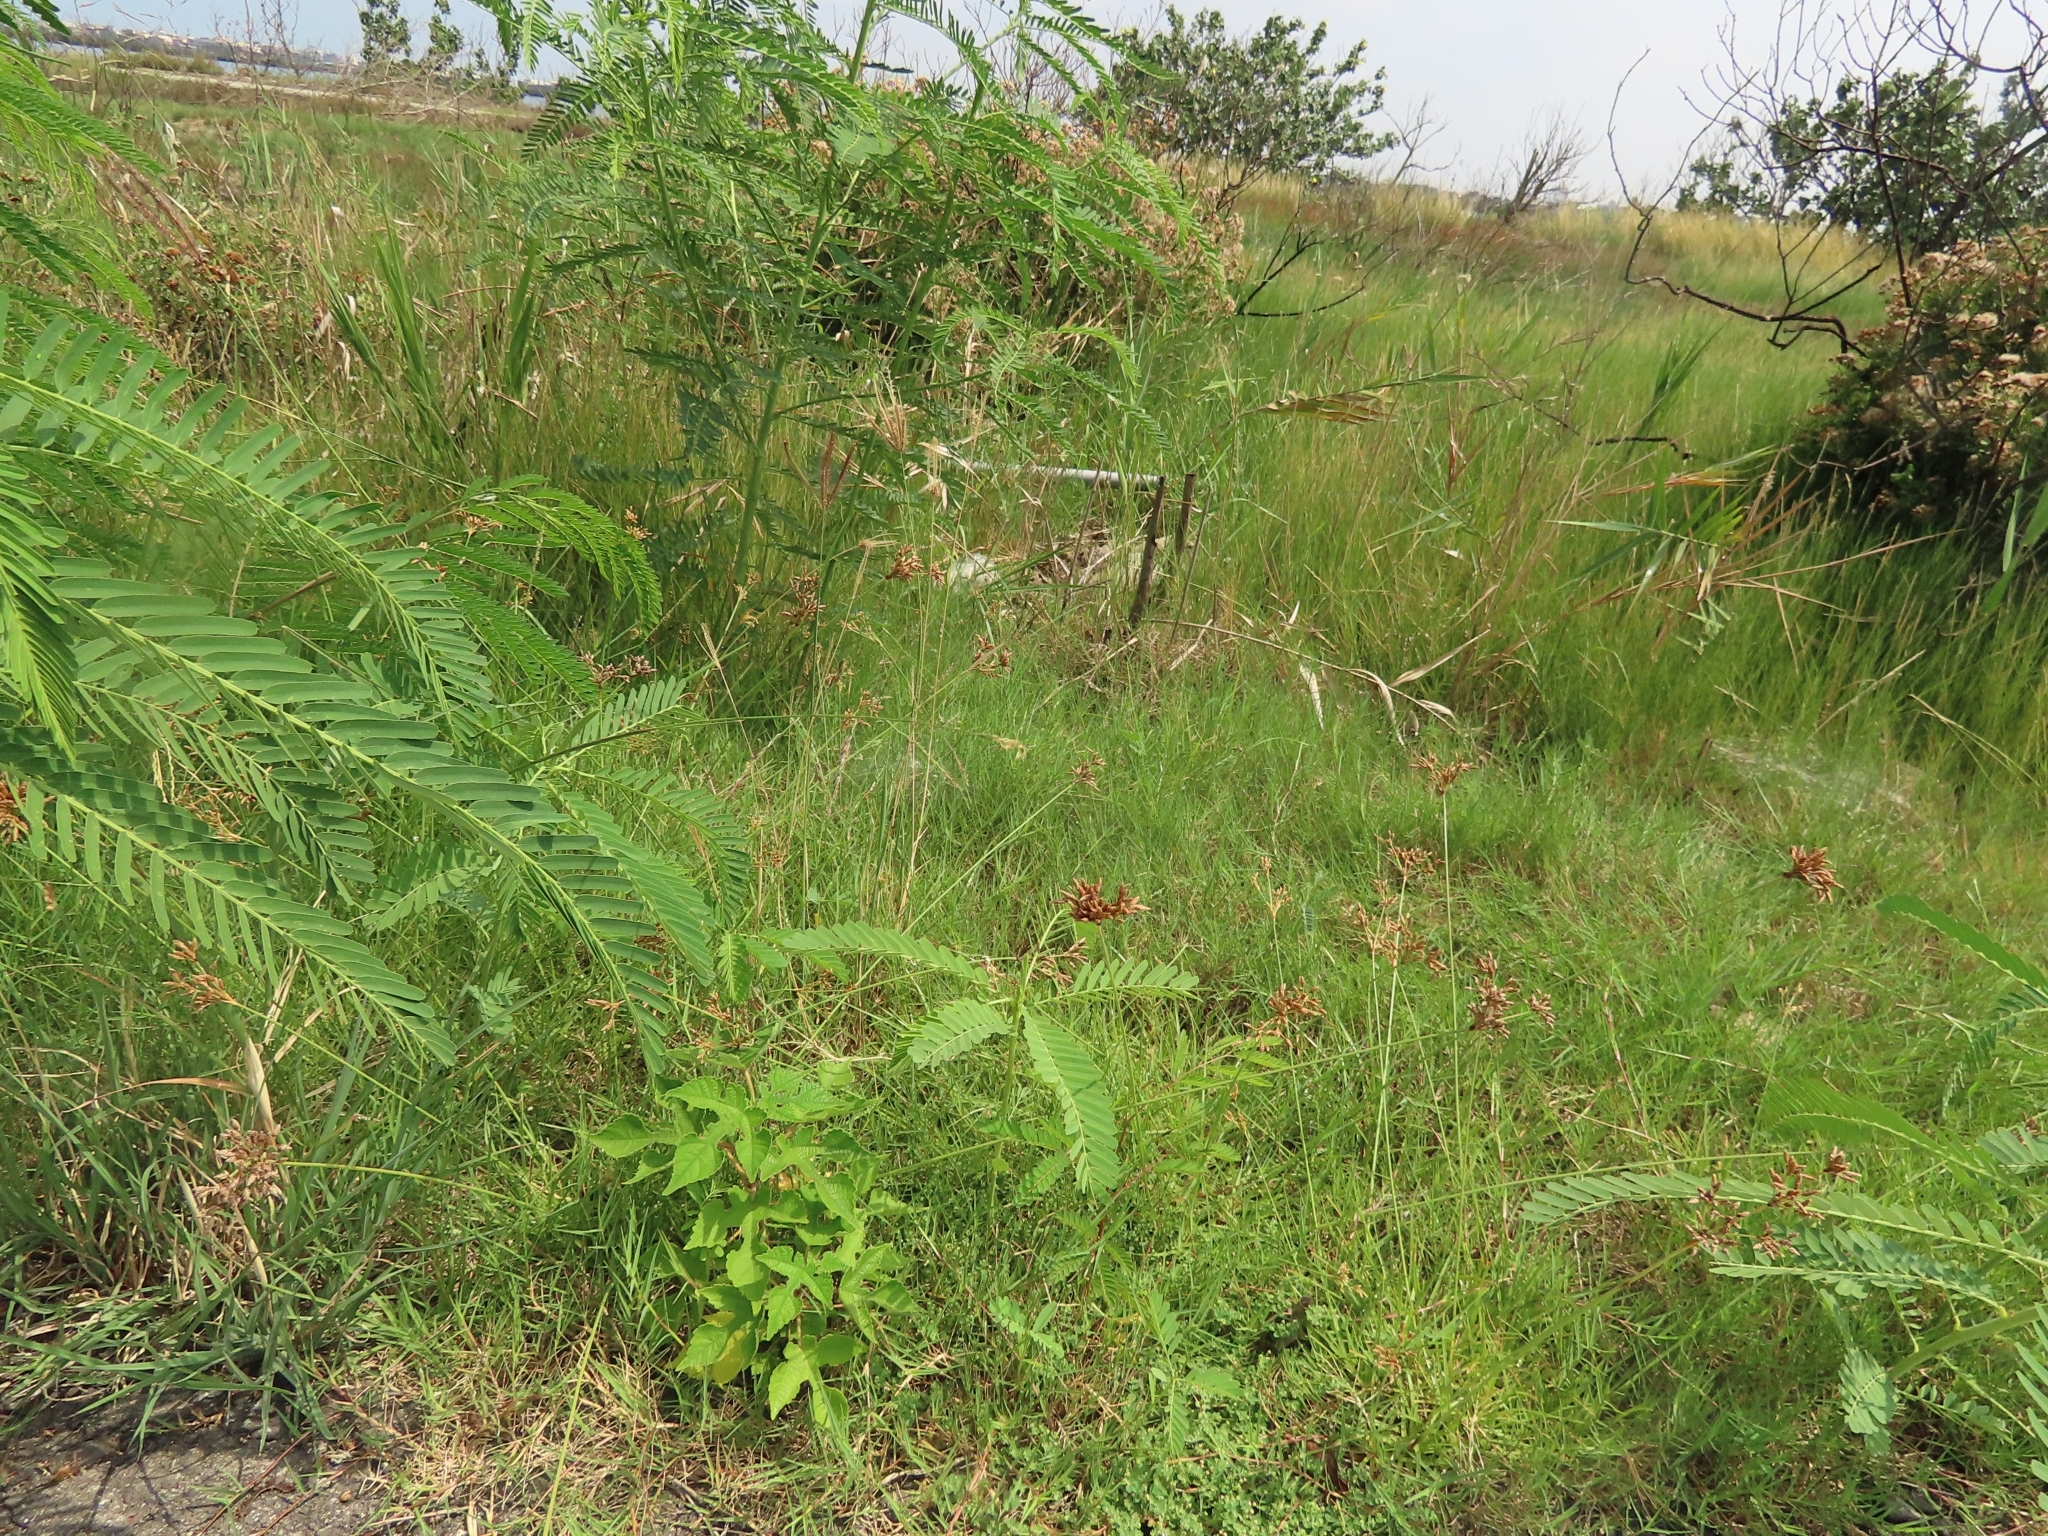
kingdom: Plantae
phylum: Tracheophyta
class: Liliopsida
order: Poales
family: Cyperaceae
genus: Fimbristylis
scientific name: Fimbristylis cymosa
